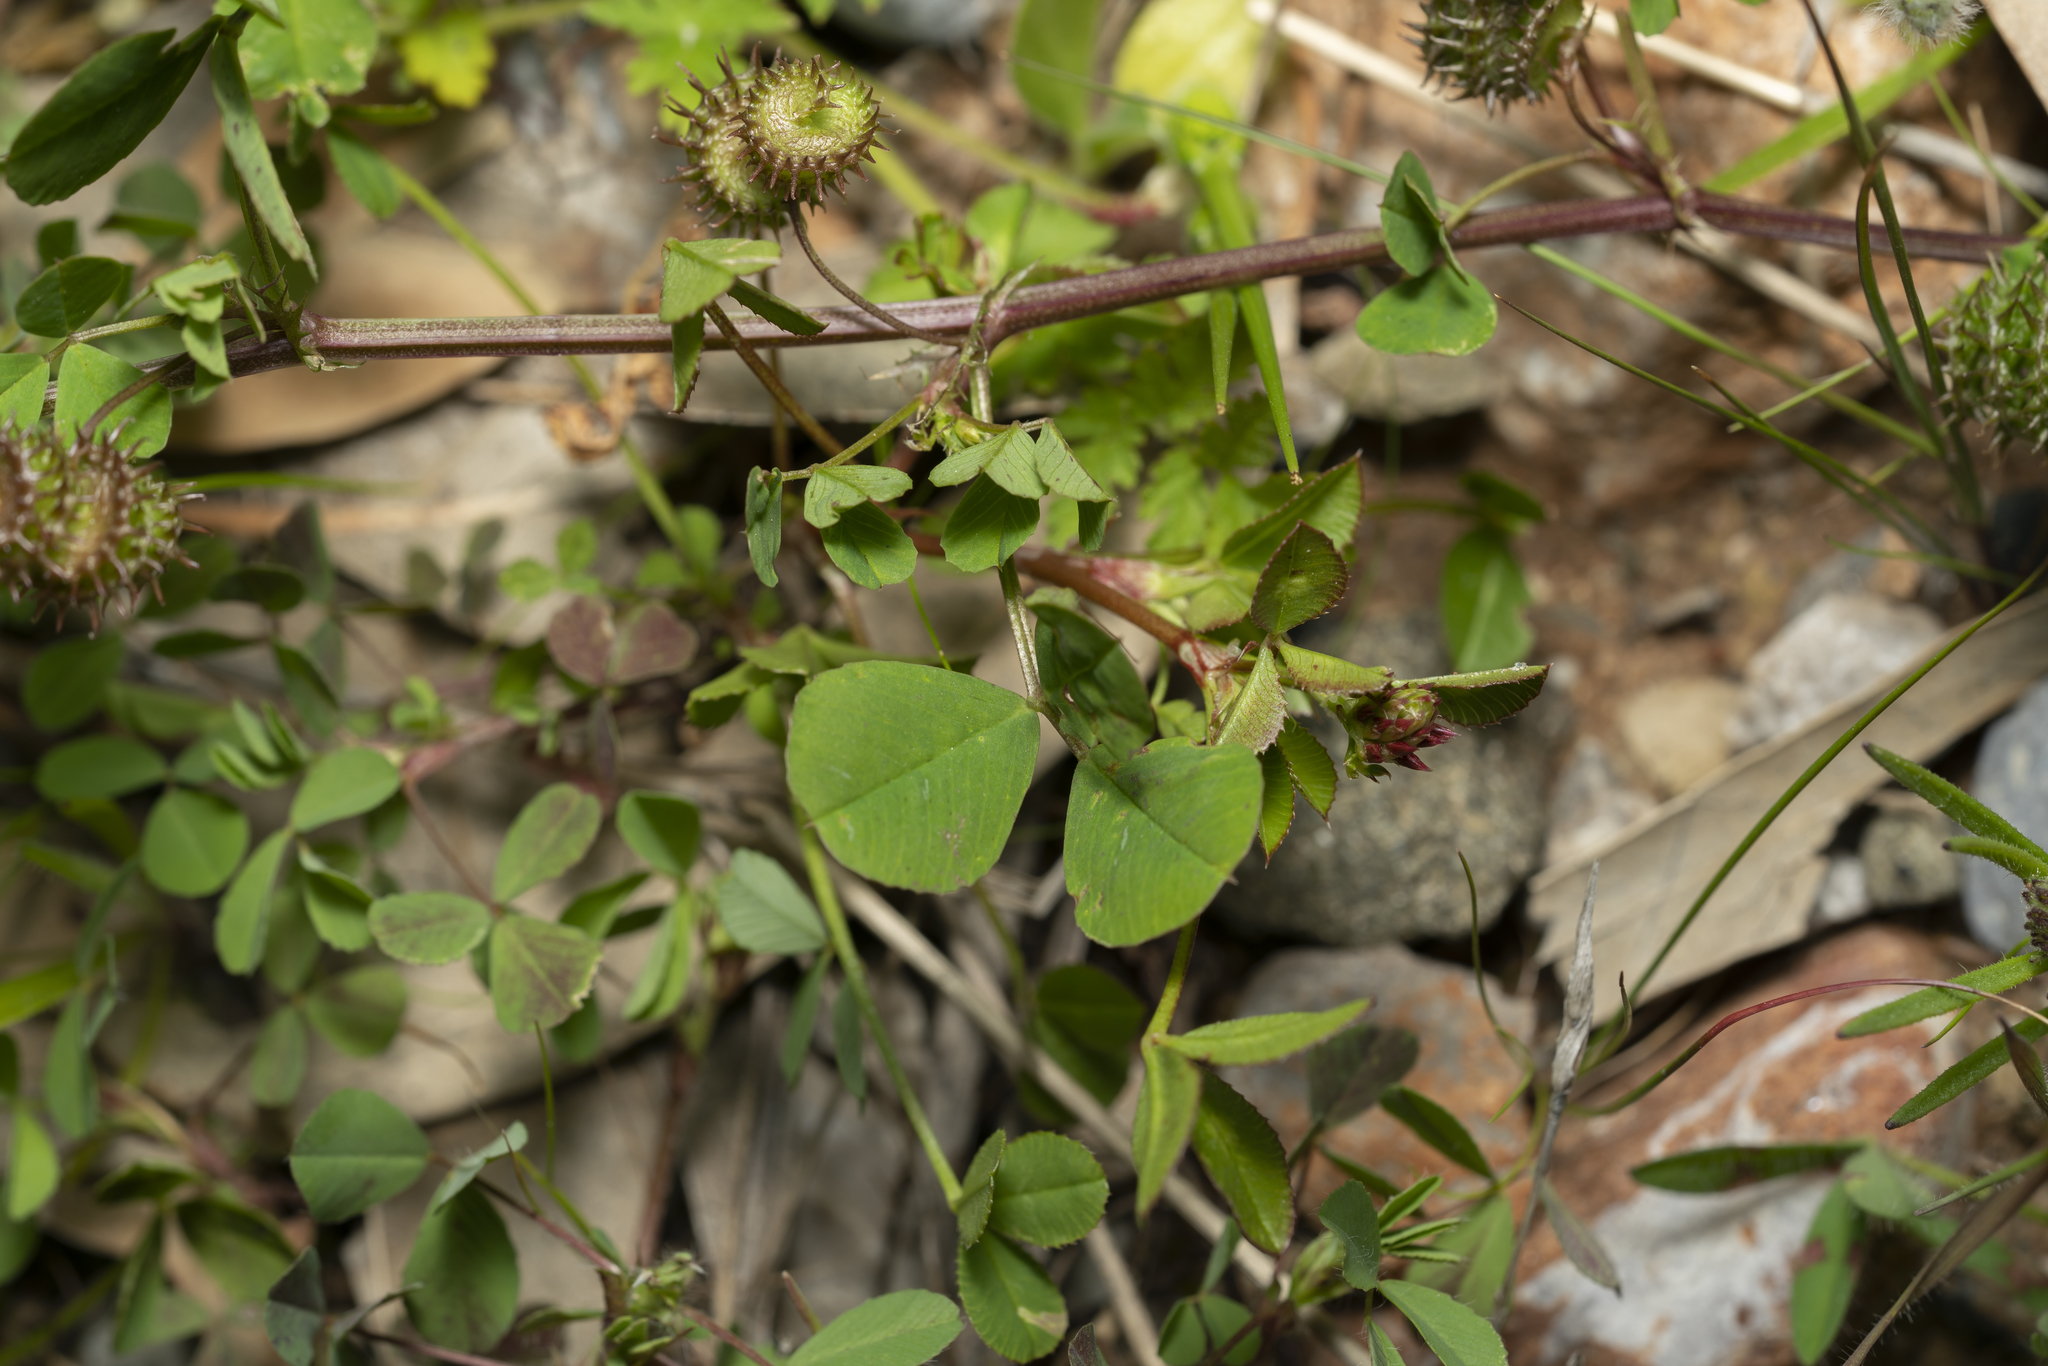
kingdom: Plantae
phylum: Tracheophyta
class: Magnoliopsida
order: Fabales
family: Fabaceae
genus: Medicago
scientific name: Medicago polymorpha
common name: Burclover
